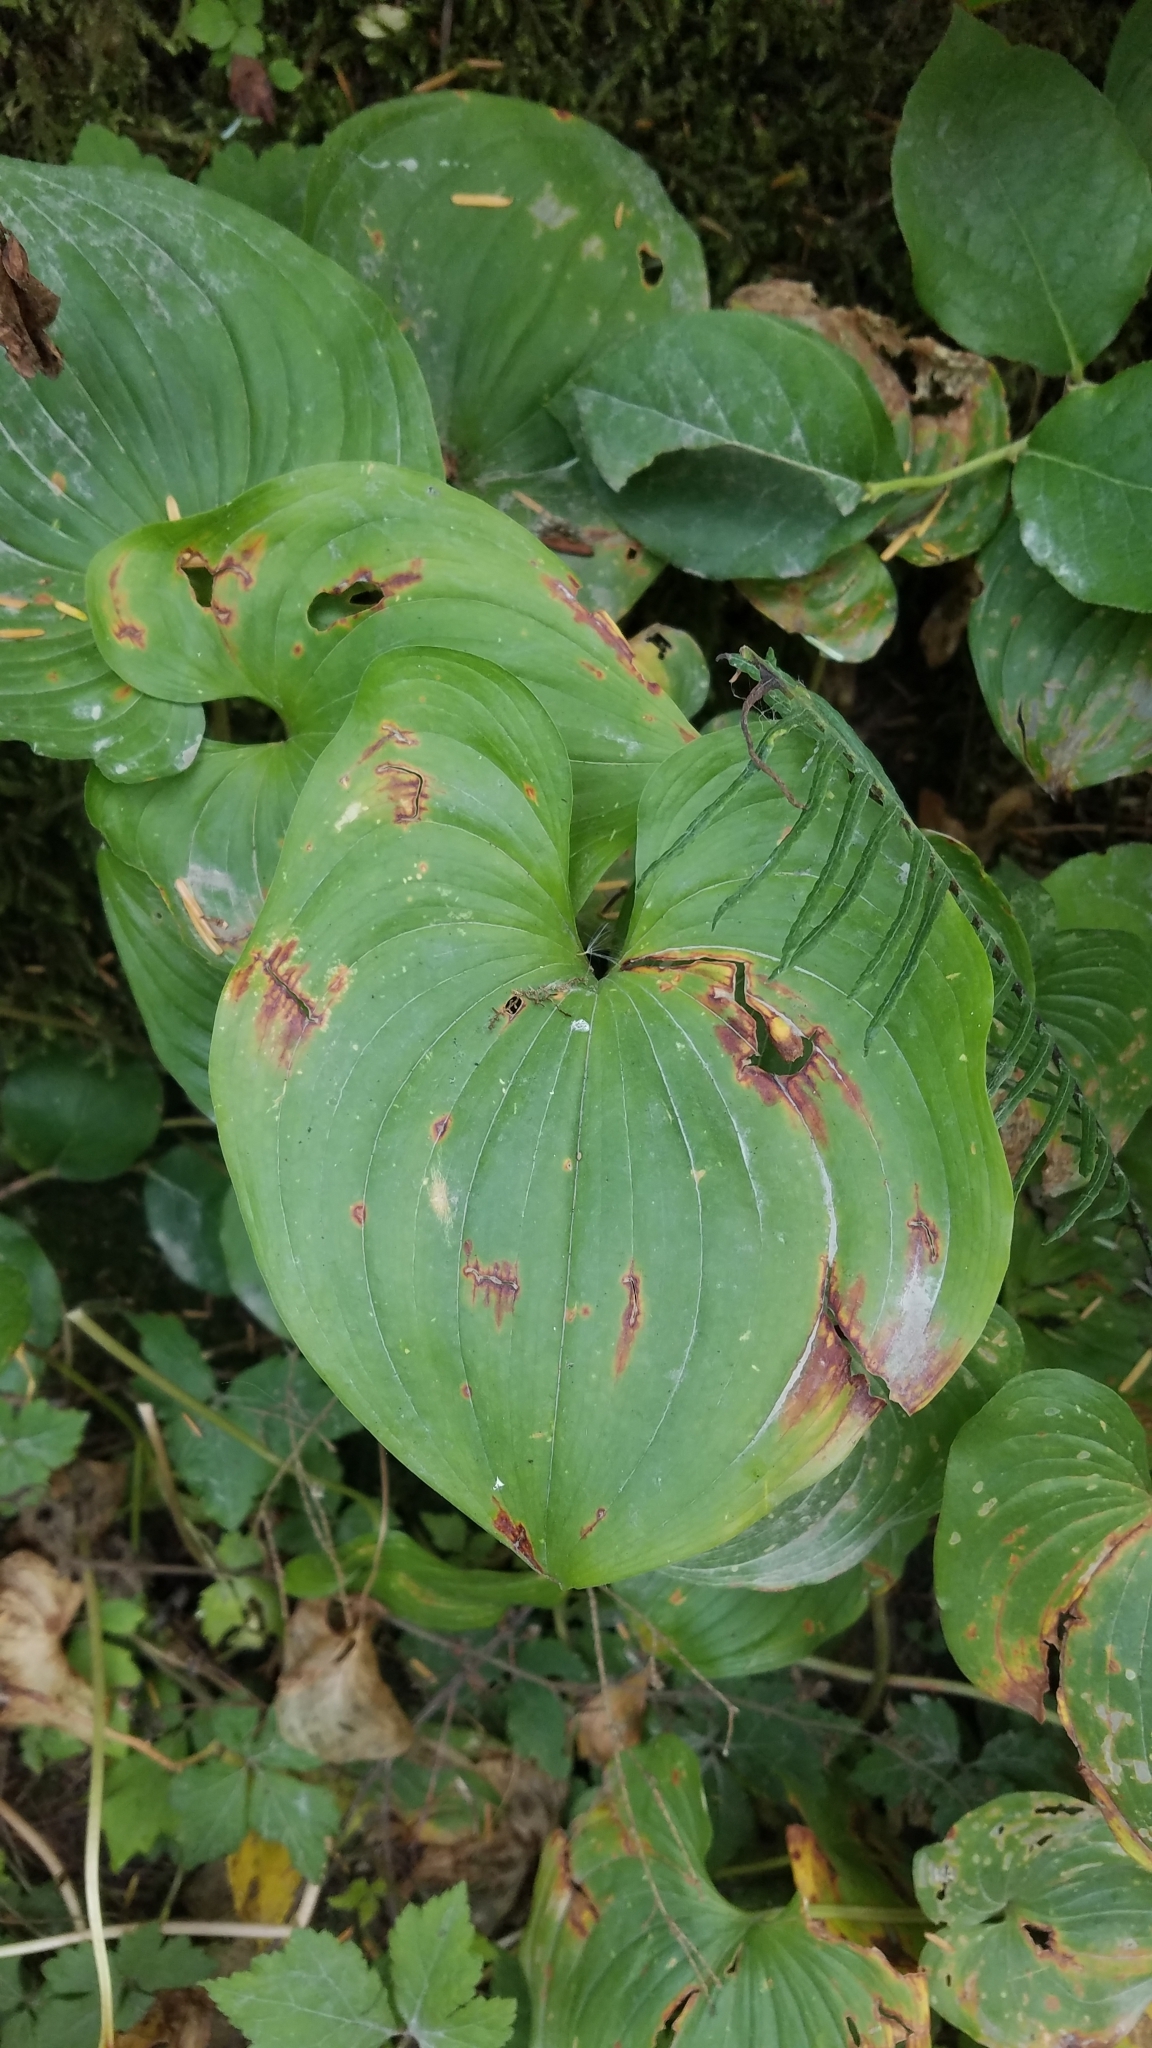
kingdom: Plantae
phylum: Tracheophyta
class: Liliopsida
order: Asparagales
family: Asparagaceae
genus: Maianthemum
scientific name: Maianthemum dilatatum
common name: False lily-of-the-valley
